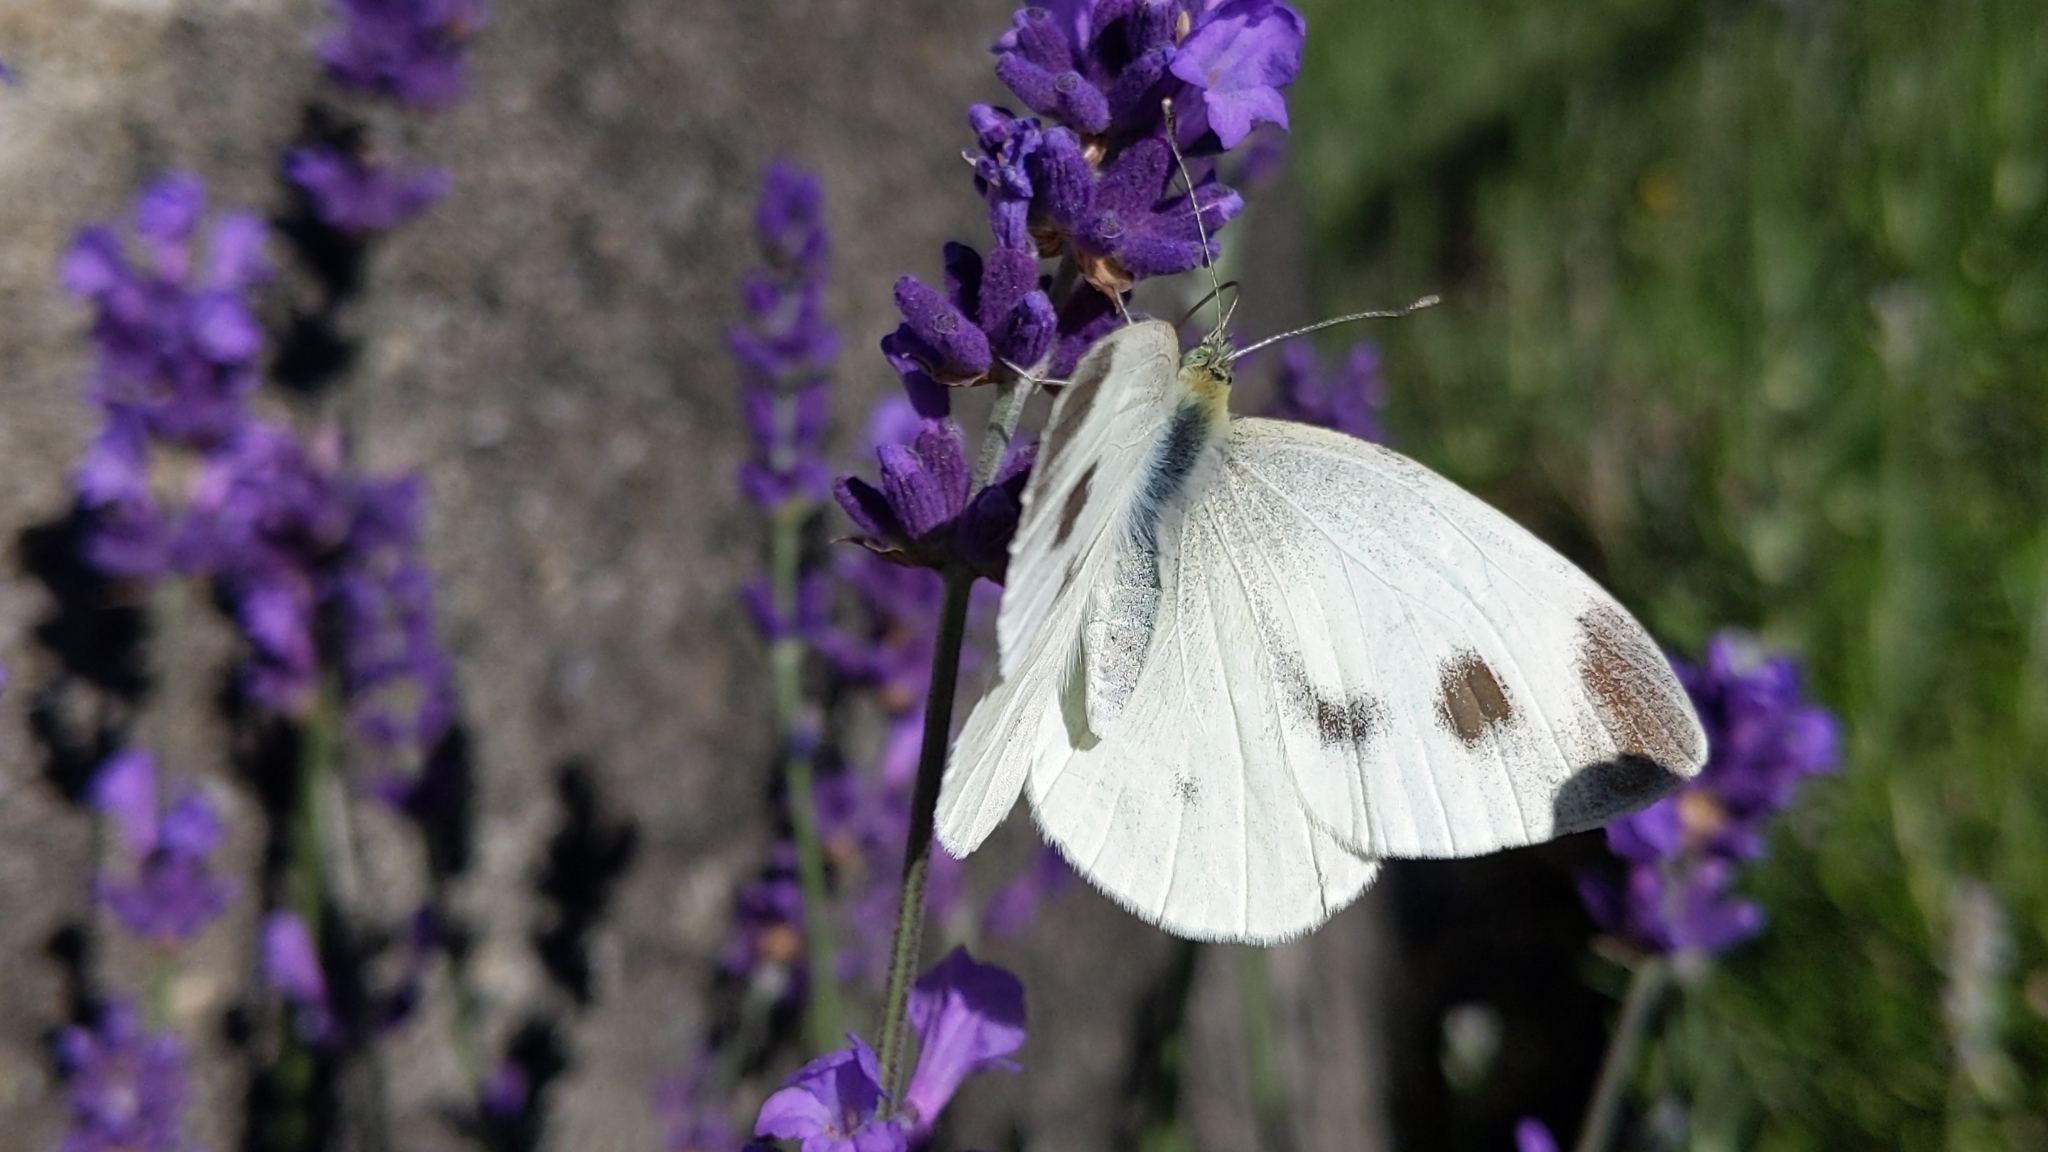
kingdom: Animalia
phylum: Arthropoda
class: Insecta
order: Lepidoptera
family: Pieridae
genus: Pieris
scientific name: Pieris mannii
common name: Southern small white
